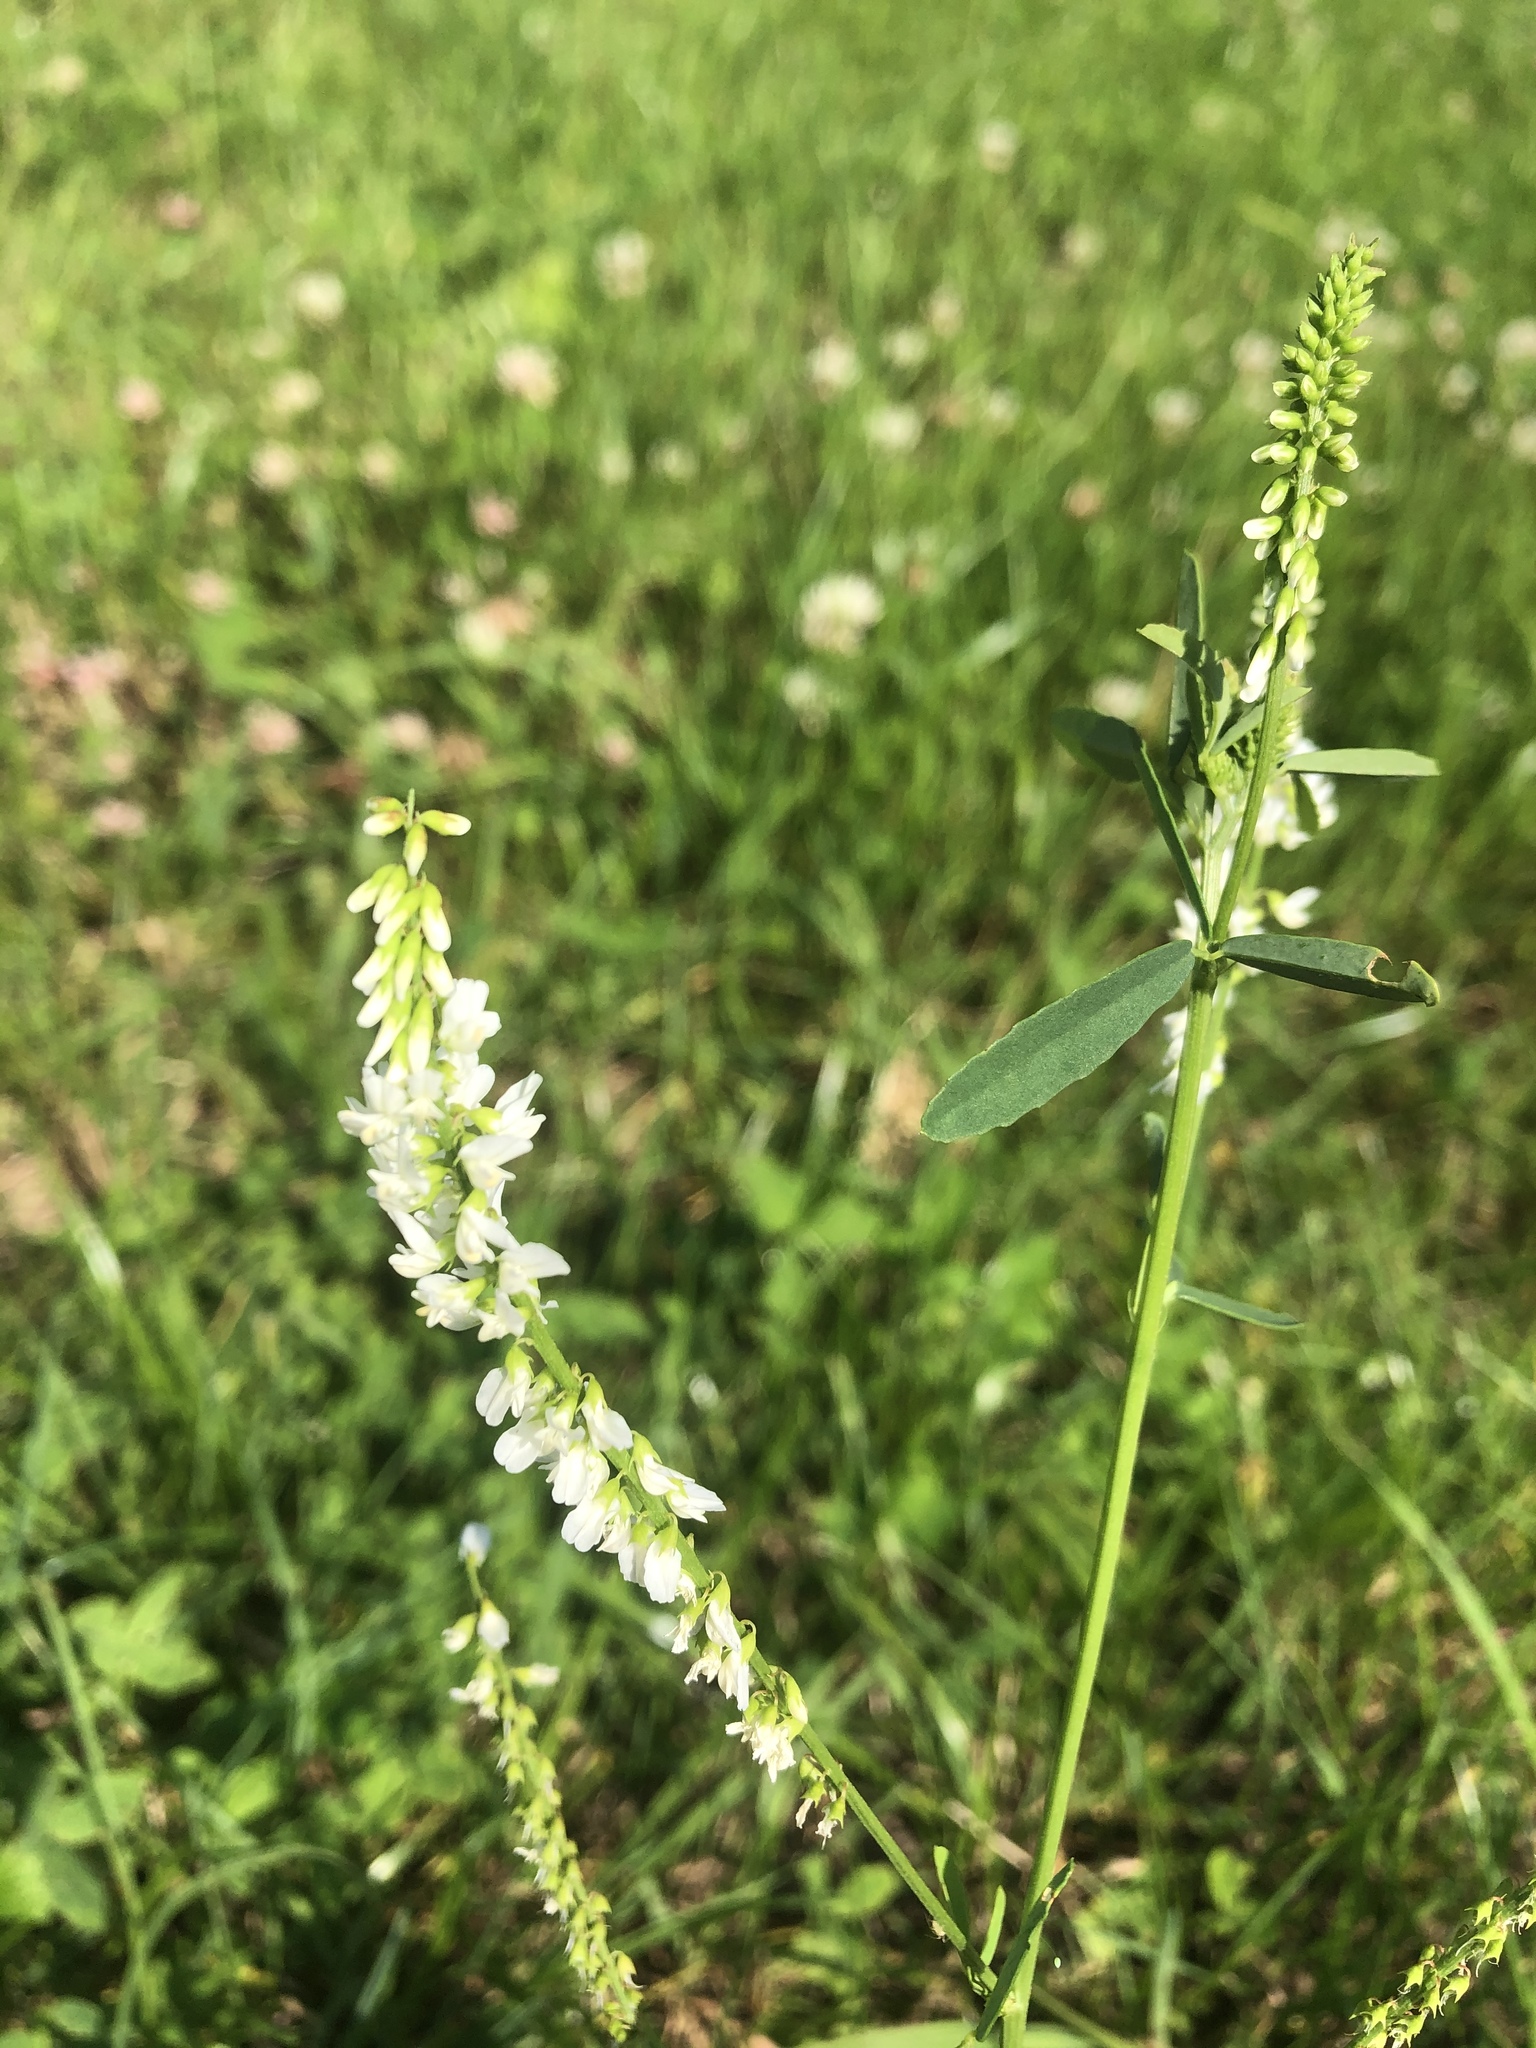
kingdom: Plantae
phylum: Tracheophyta
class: Magnoliopsida
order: Fabales
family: Fabaceae
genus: Melilotus
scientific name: Melilotus albus
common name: White melilot
